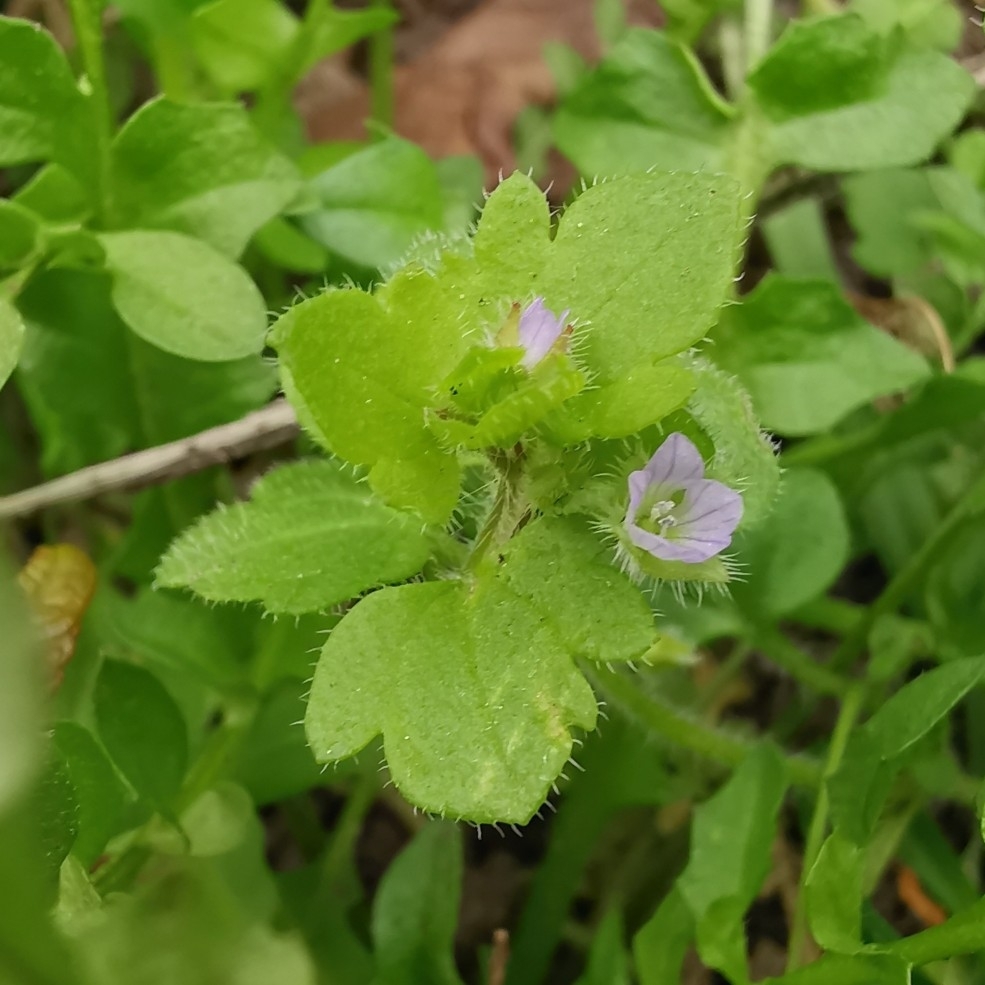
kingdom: Plantae
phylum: Tracheophyta
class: Magnoliopsida
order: Lamiales
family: Plantaginaceae
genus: Veronica
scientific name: Veronica sublobata
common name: False ivy-leaved speedwell
